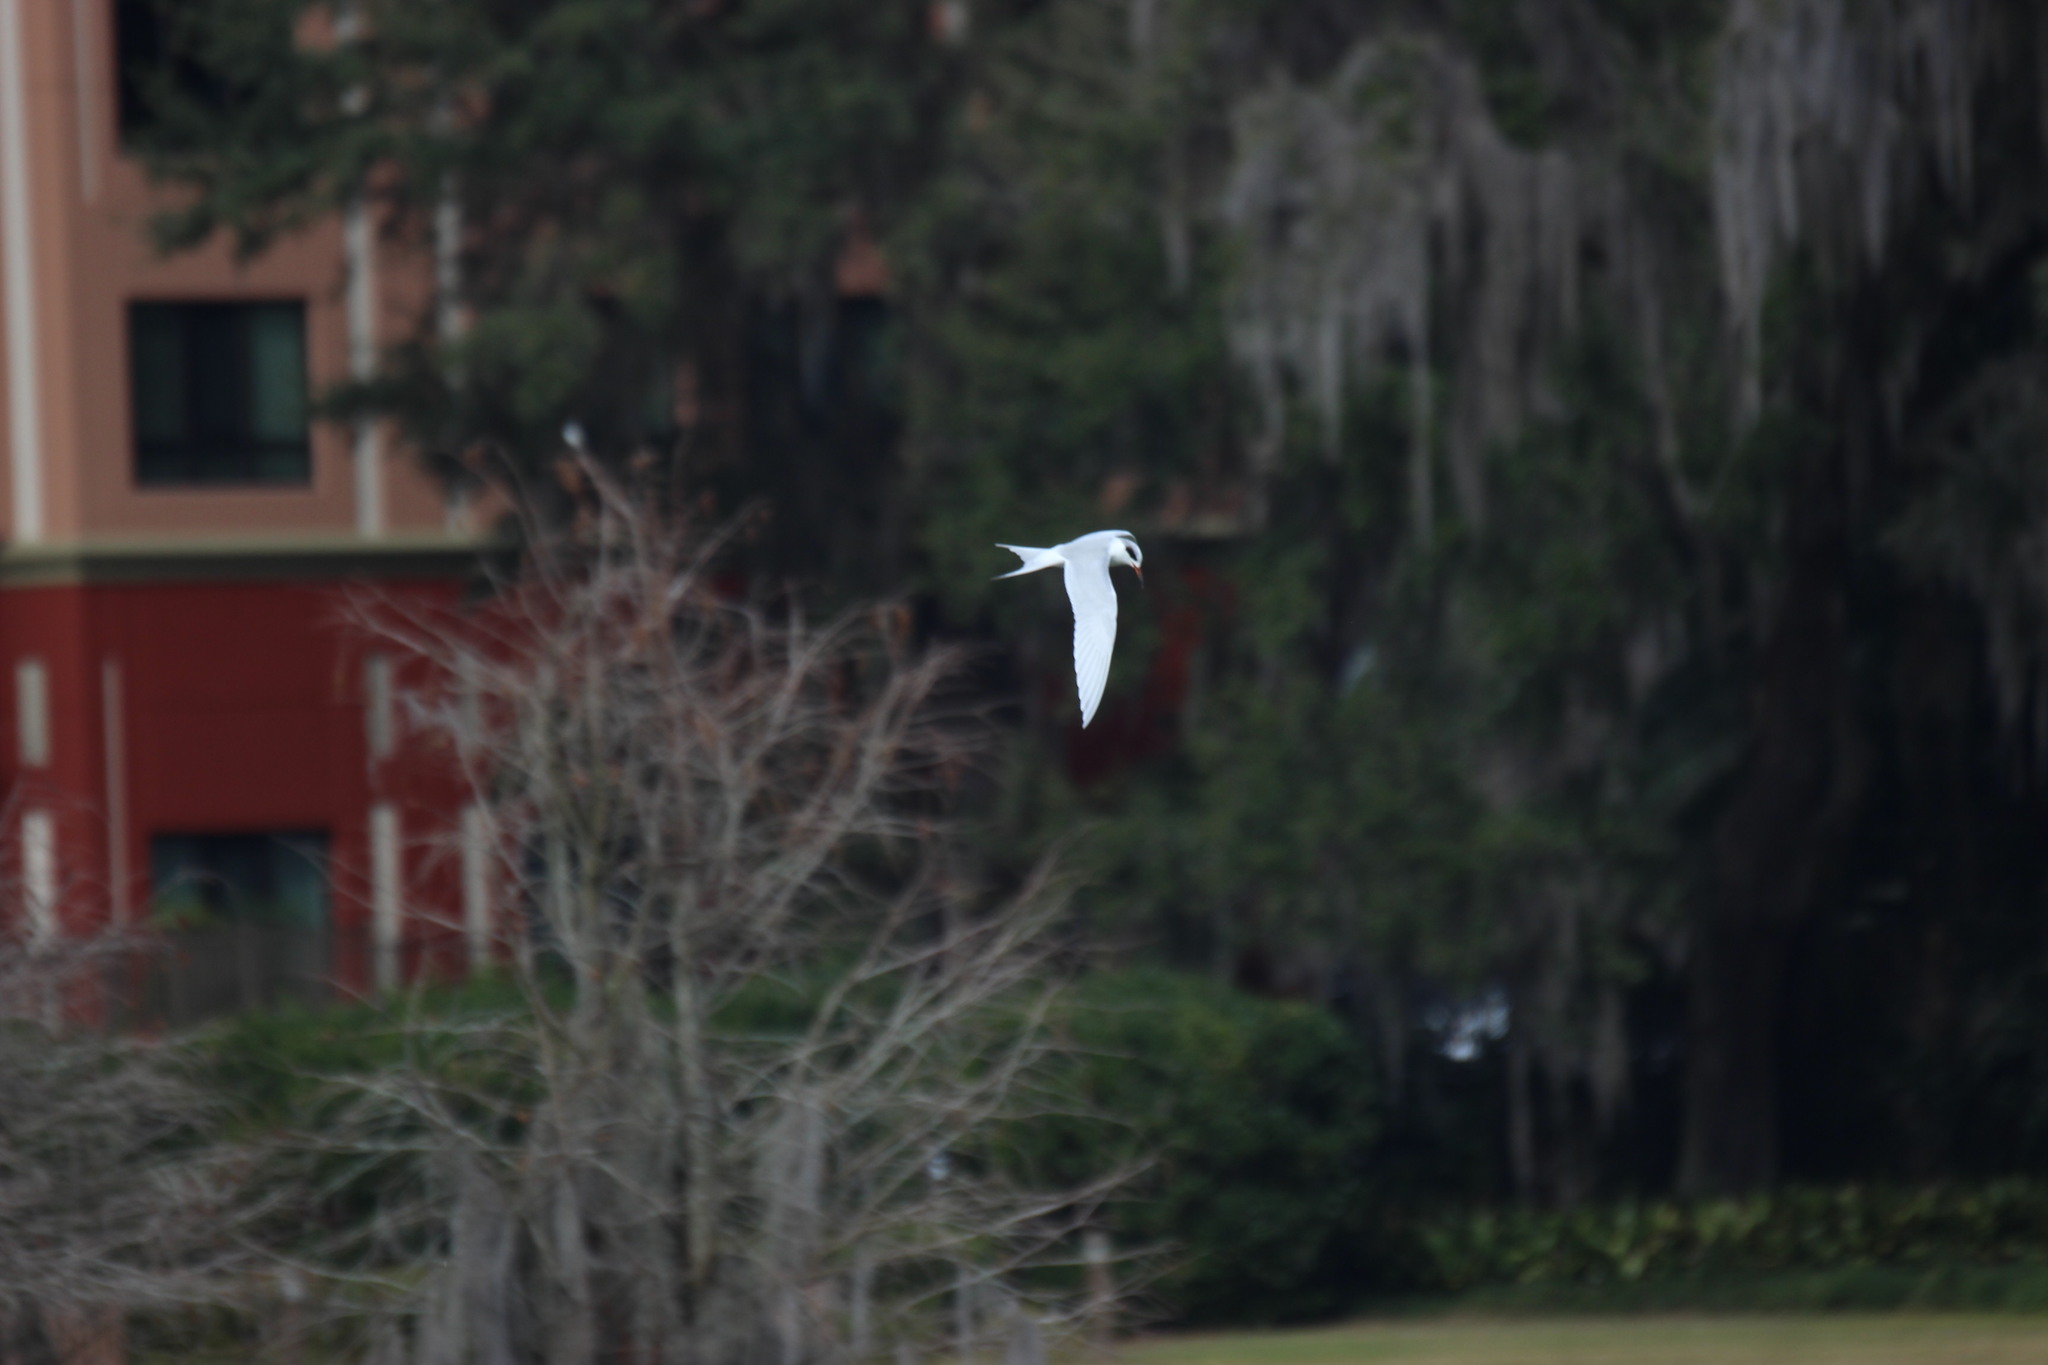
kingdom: Animalia
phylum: Chordata
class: Aves
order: Charadriiformes
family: Laridae
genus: Sterna
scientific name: Sterna forsteri
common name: Forster's tern
